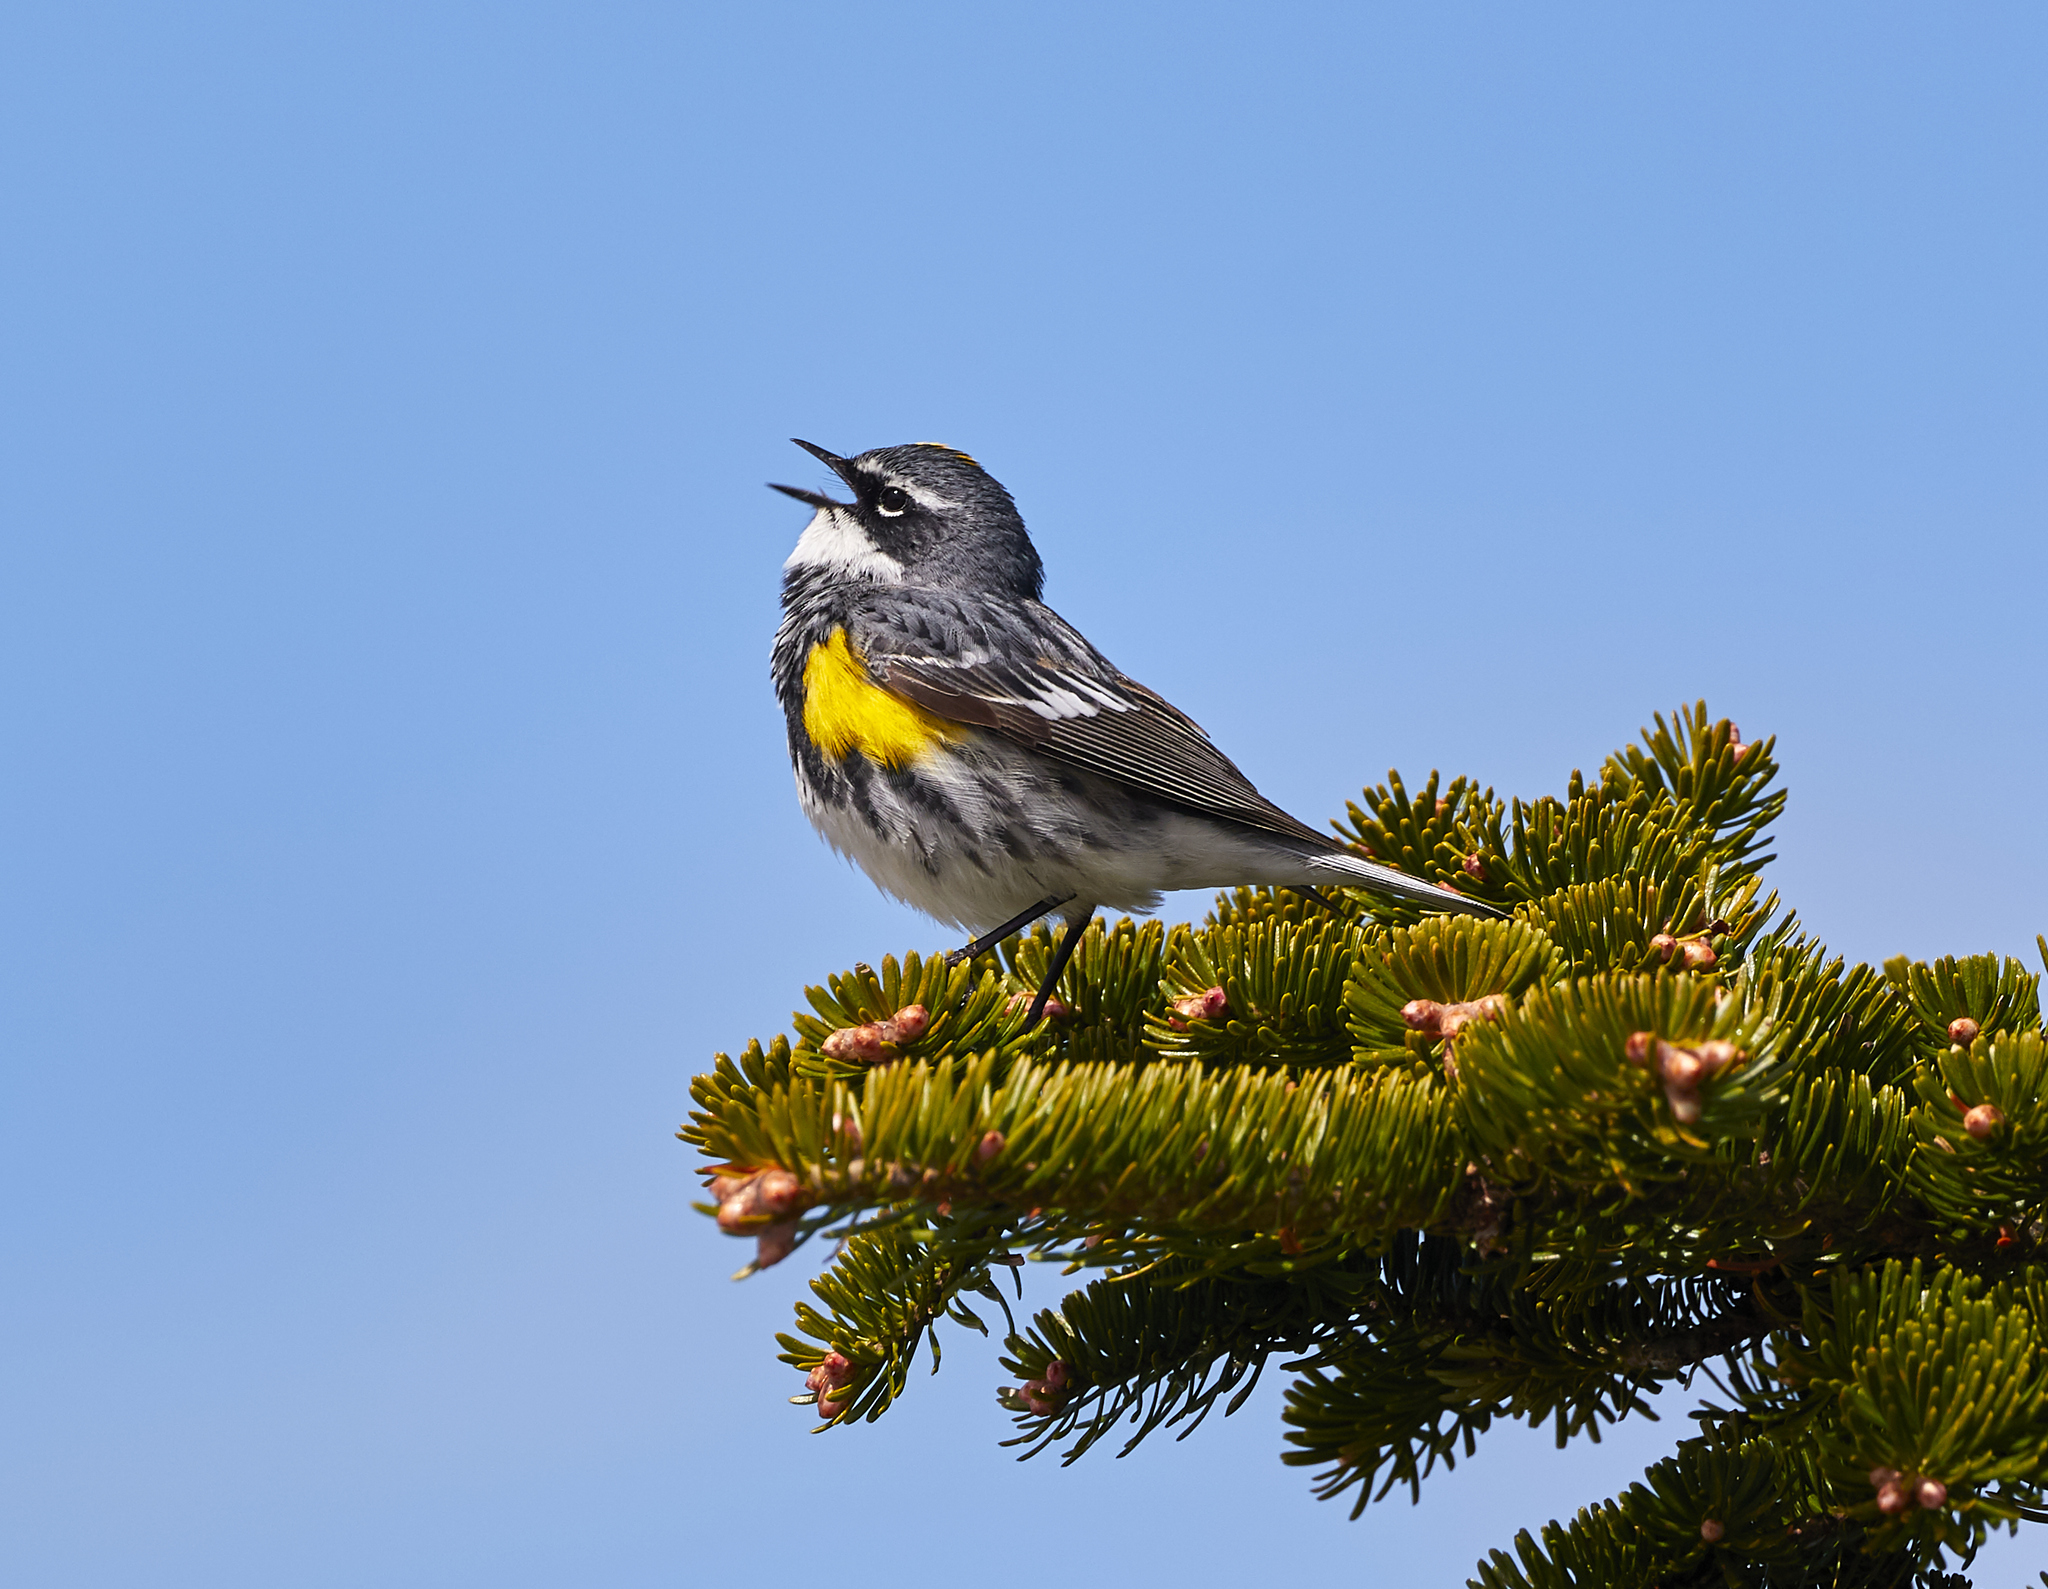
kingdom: Animalia
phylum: Chordata
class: Aves
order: Passeriformes
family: Parulidae
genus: Setophaga
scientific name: Setophaga coronata
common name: Myrtle warbler
